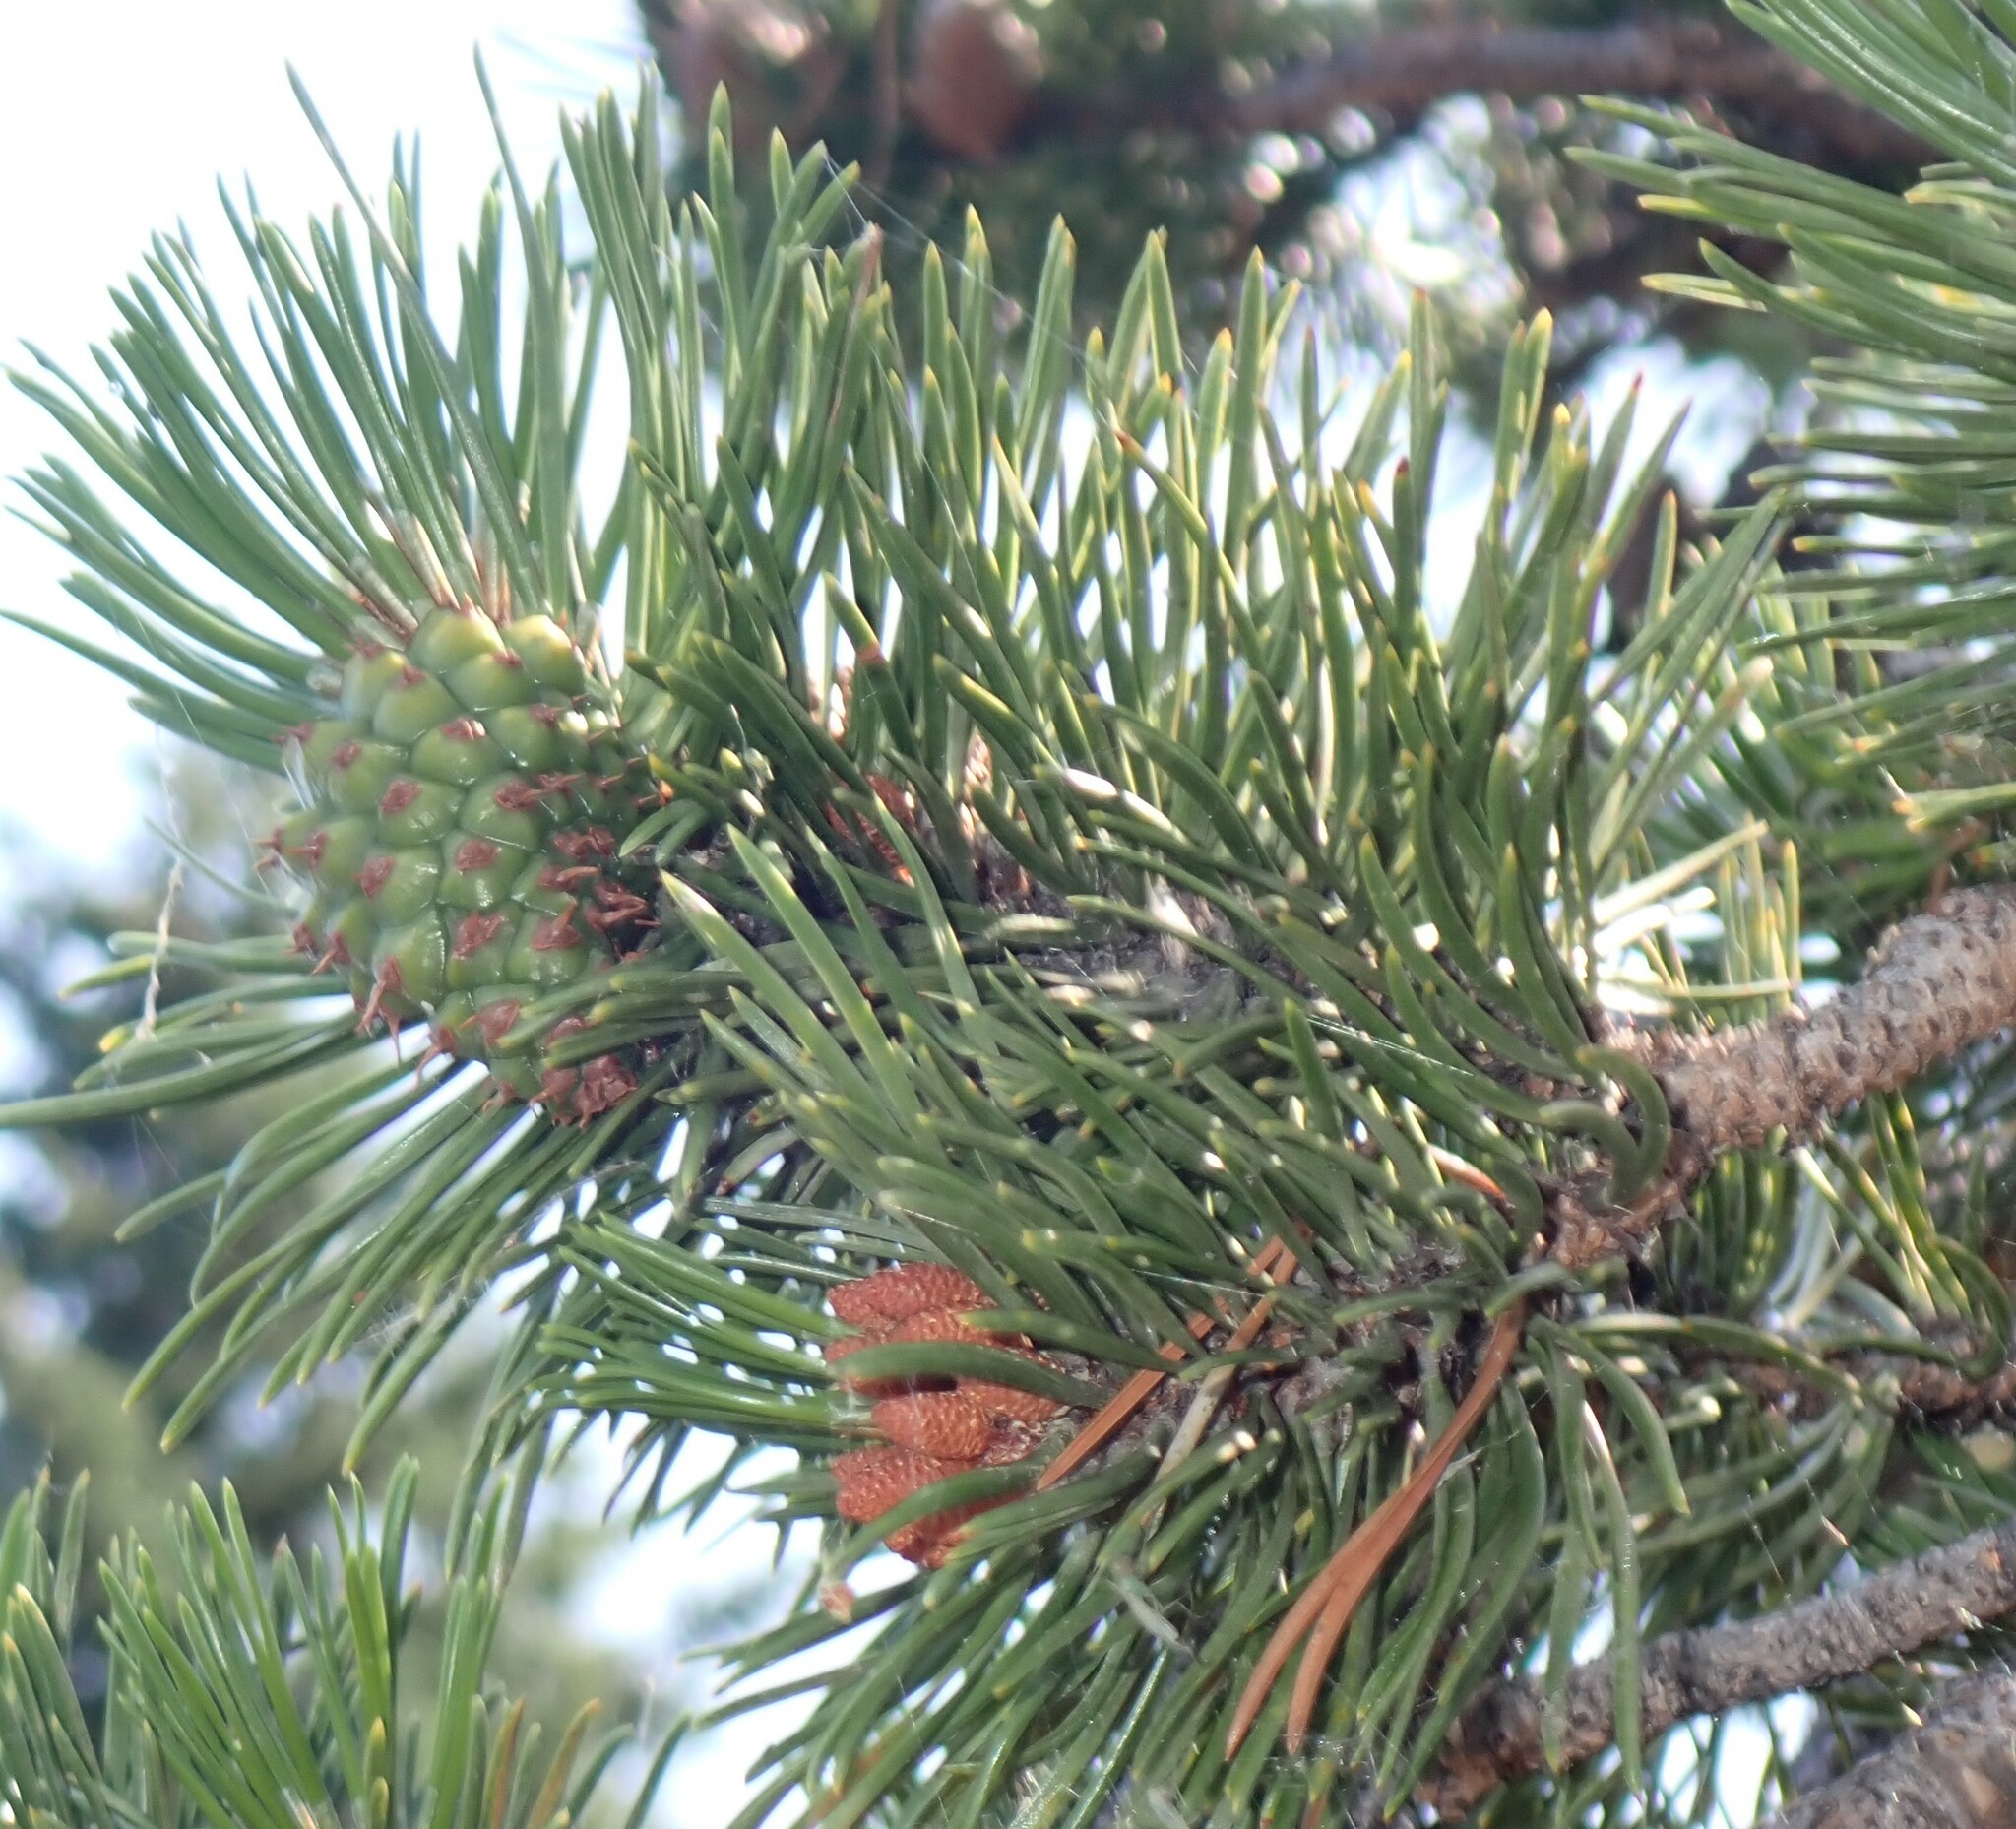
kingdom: Plantae
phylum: Tracheophyta
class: Pinopsida
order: Pinales
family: Pinaceae
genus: Pinus
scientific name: Pinus contorta
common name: Lodgepole pine
